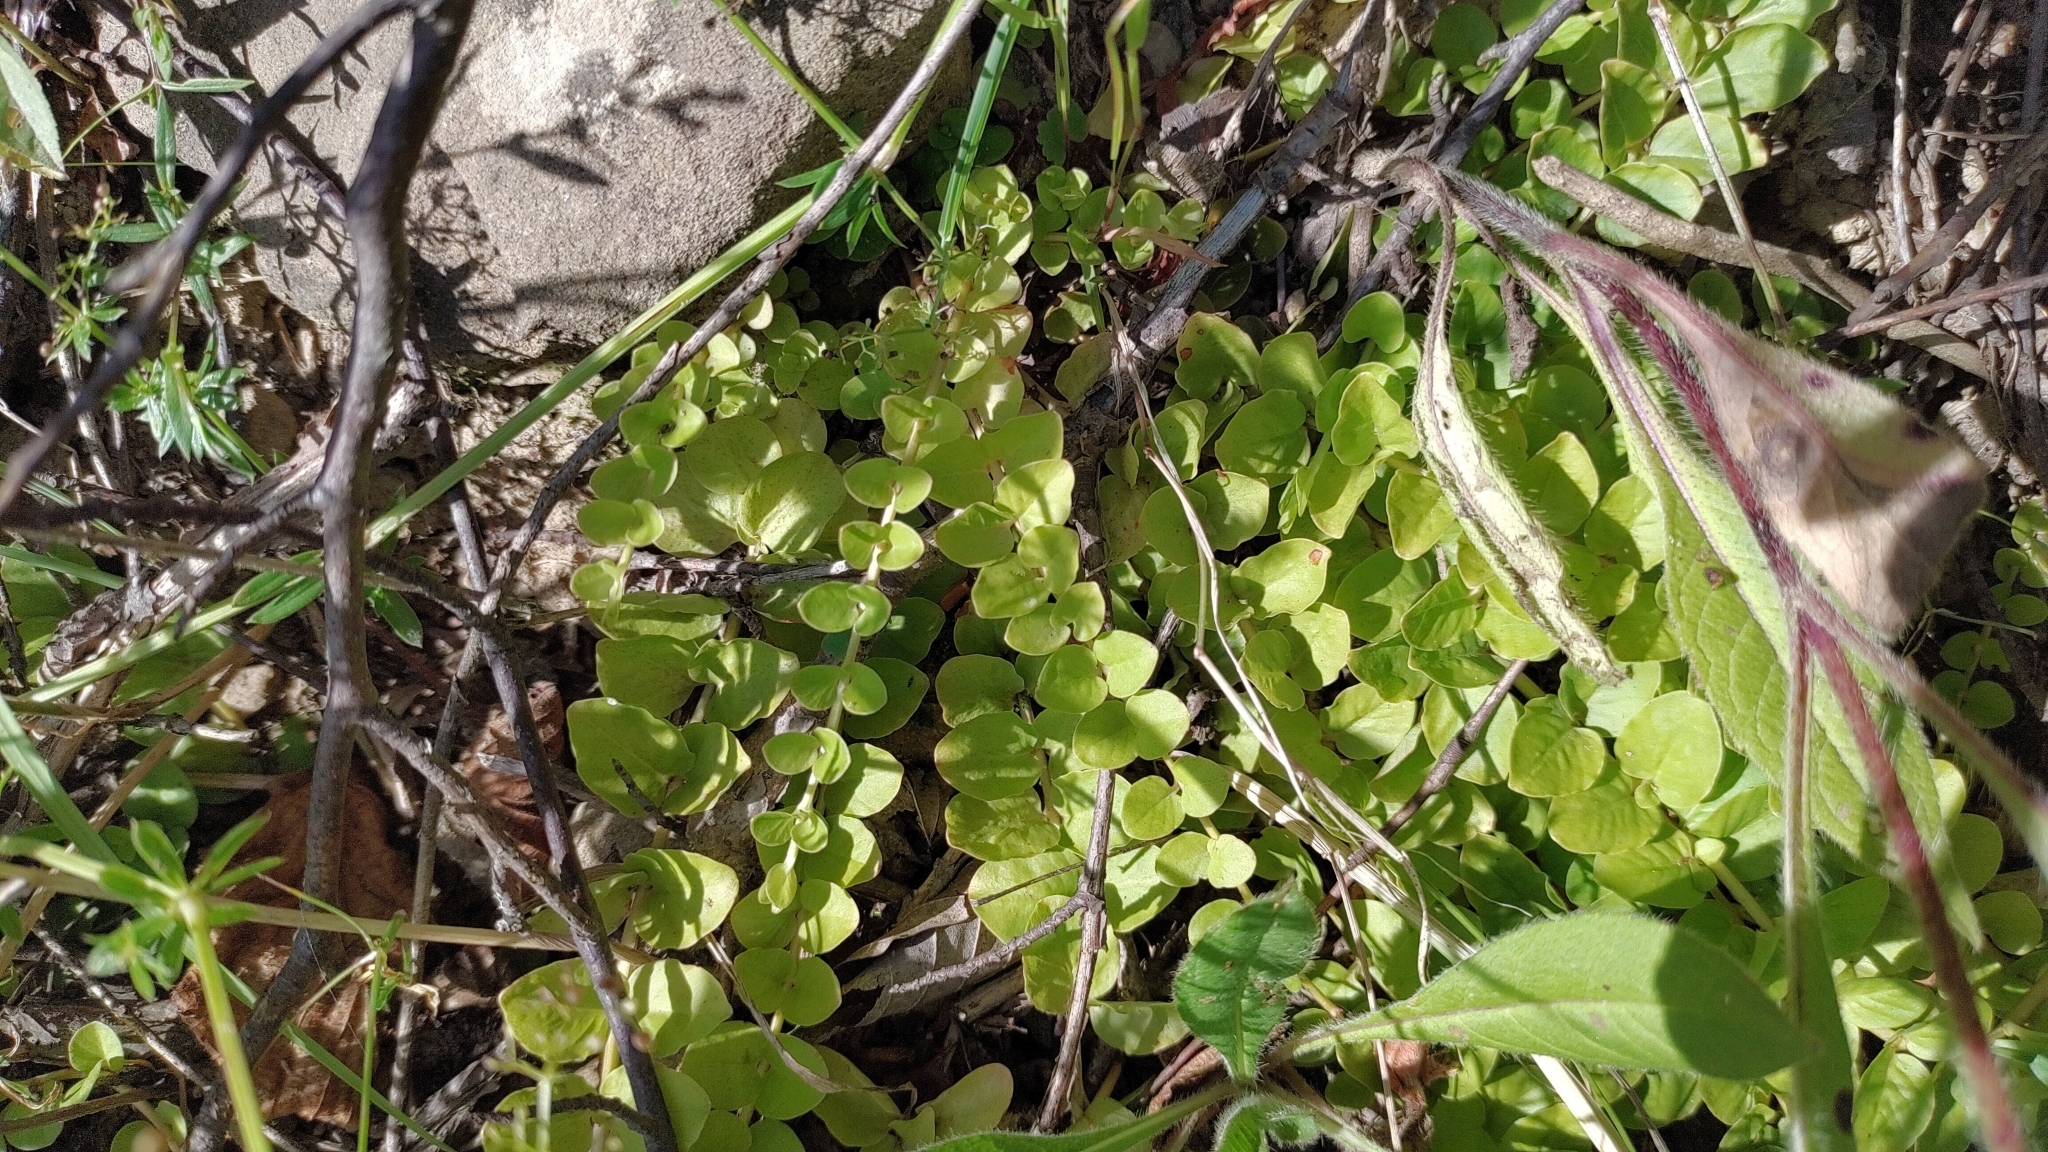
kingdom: Plantae
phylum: Tracheophyta
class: Magnoliopsida
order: Ericales
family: Primulaceae
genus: Lysimachia
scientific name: Lysimachia nummularia
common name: Moneywort
